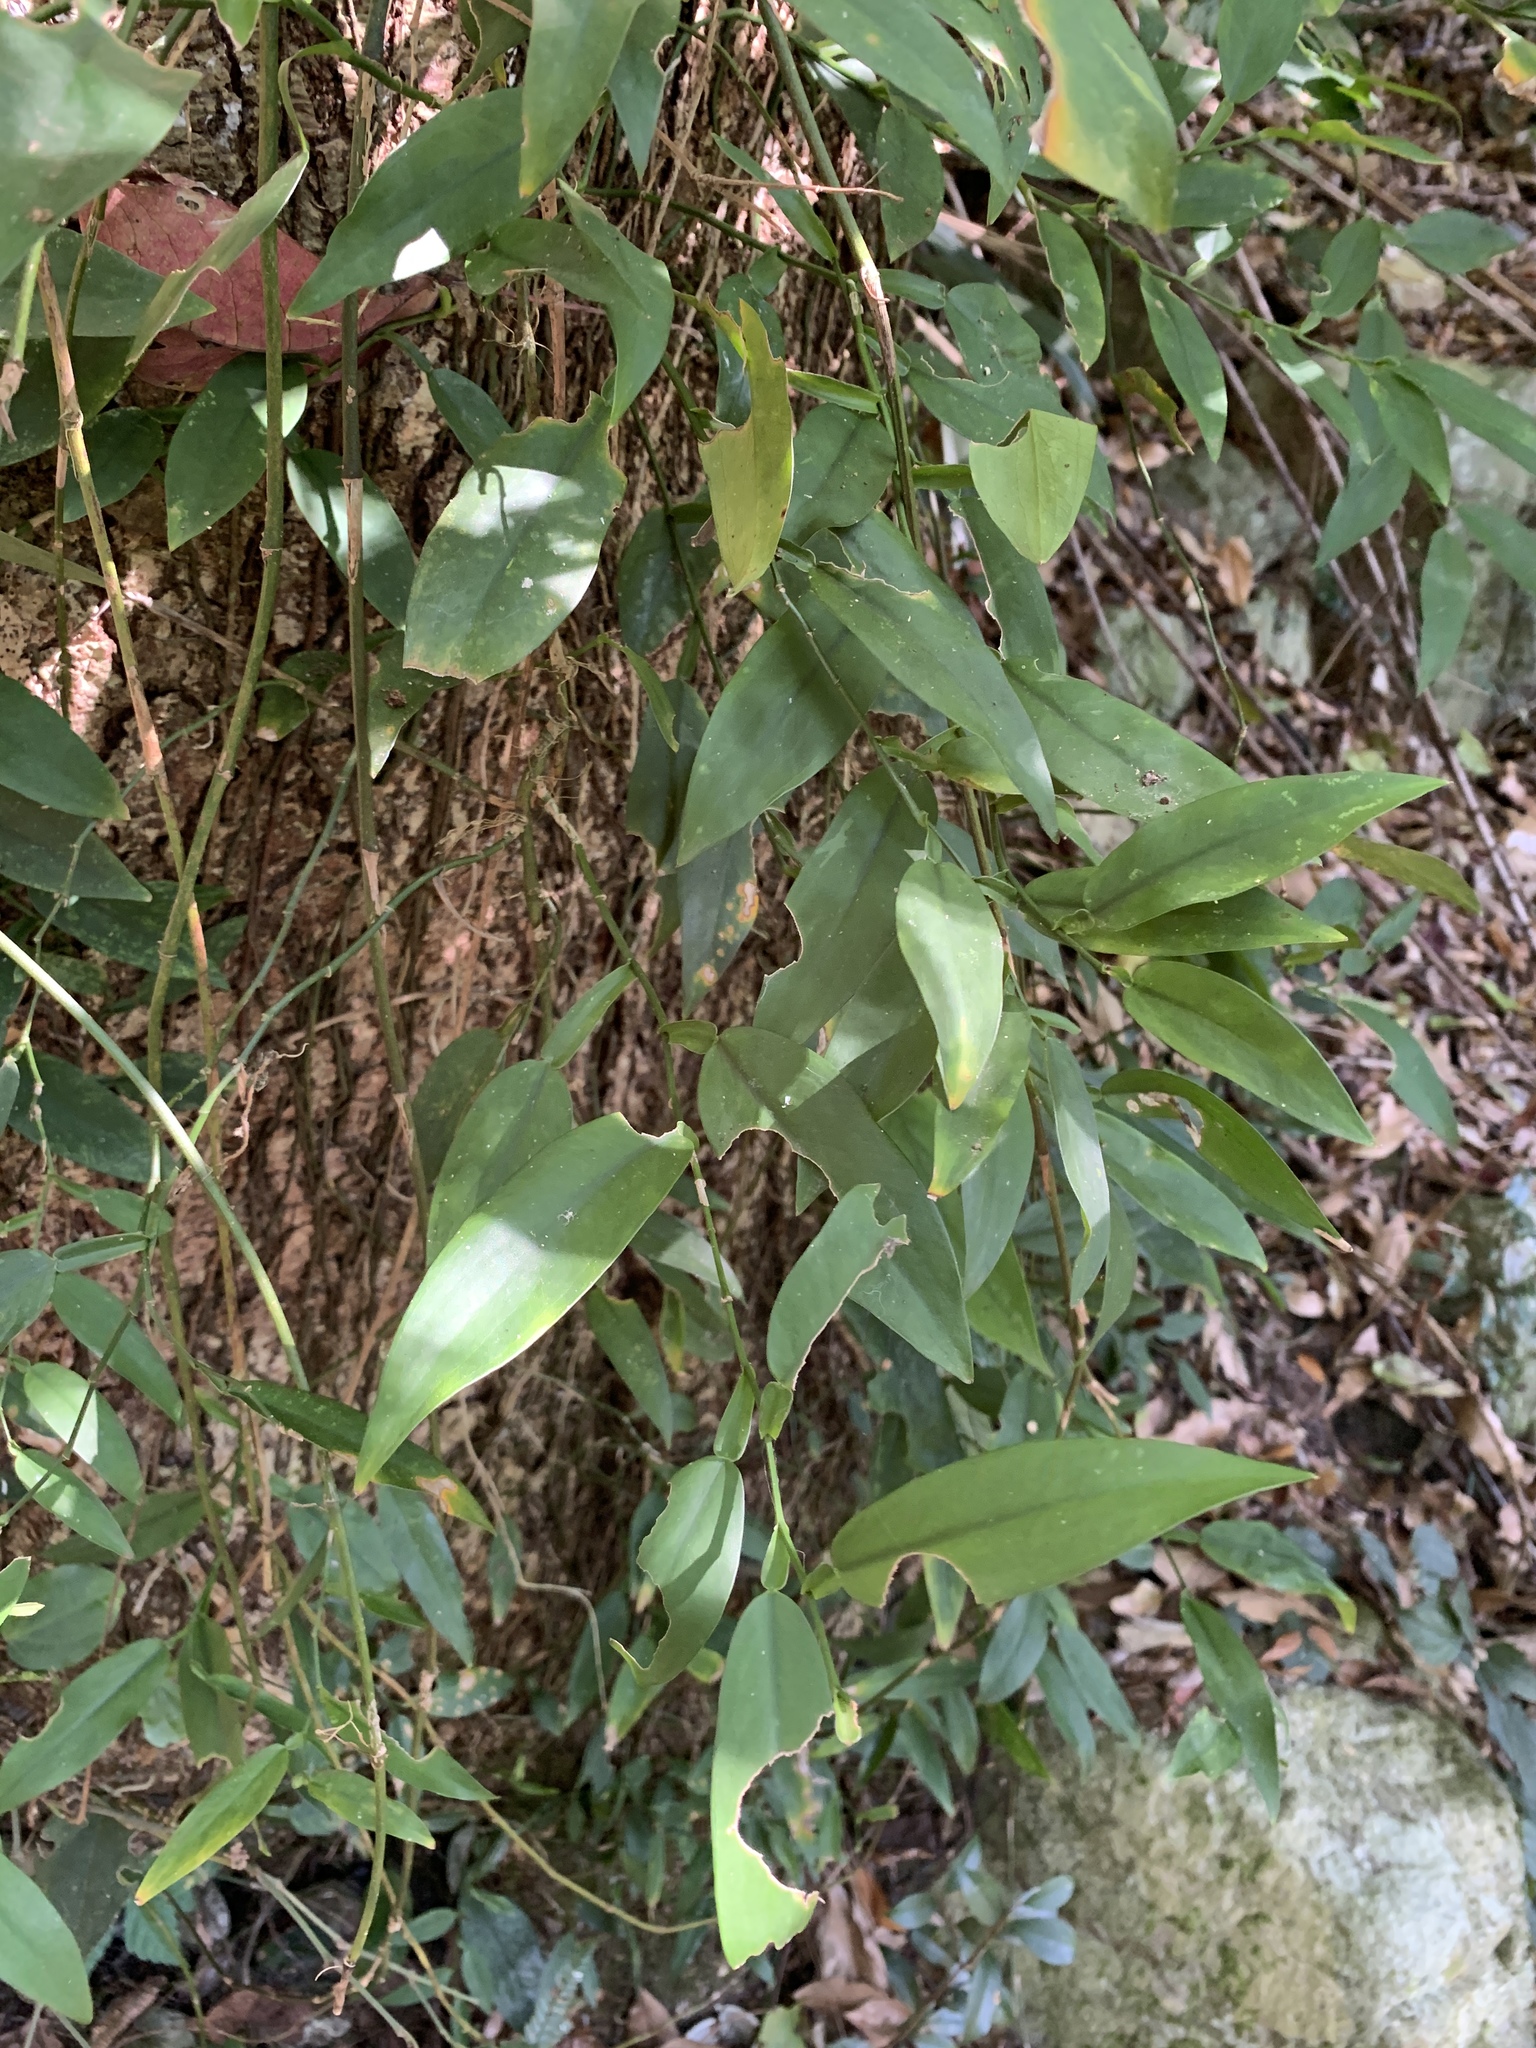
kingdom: Plantae
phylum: Tracheophyta
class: Liliopsida
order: Alismatales
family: Araceae
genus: Pothos
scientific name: Pothos chinensis
